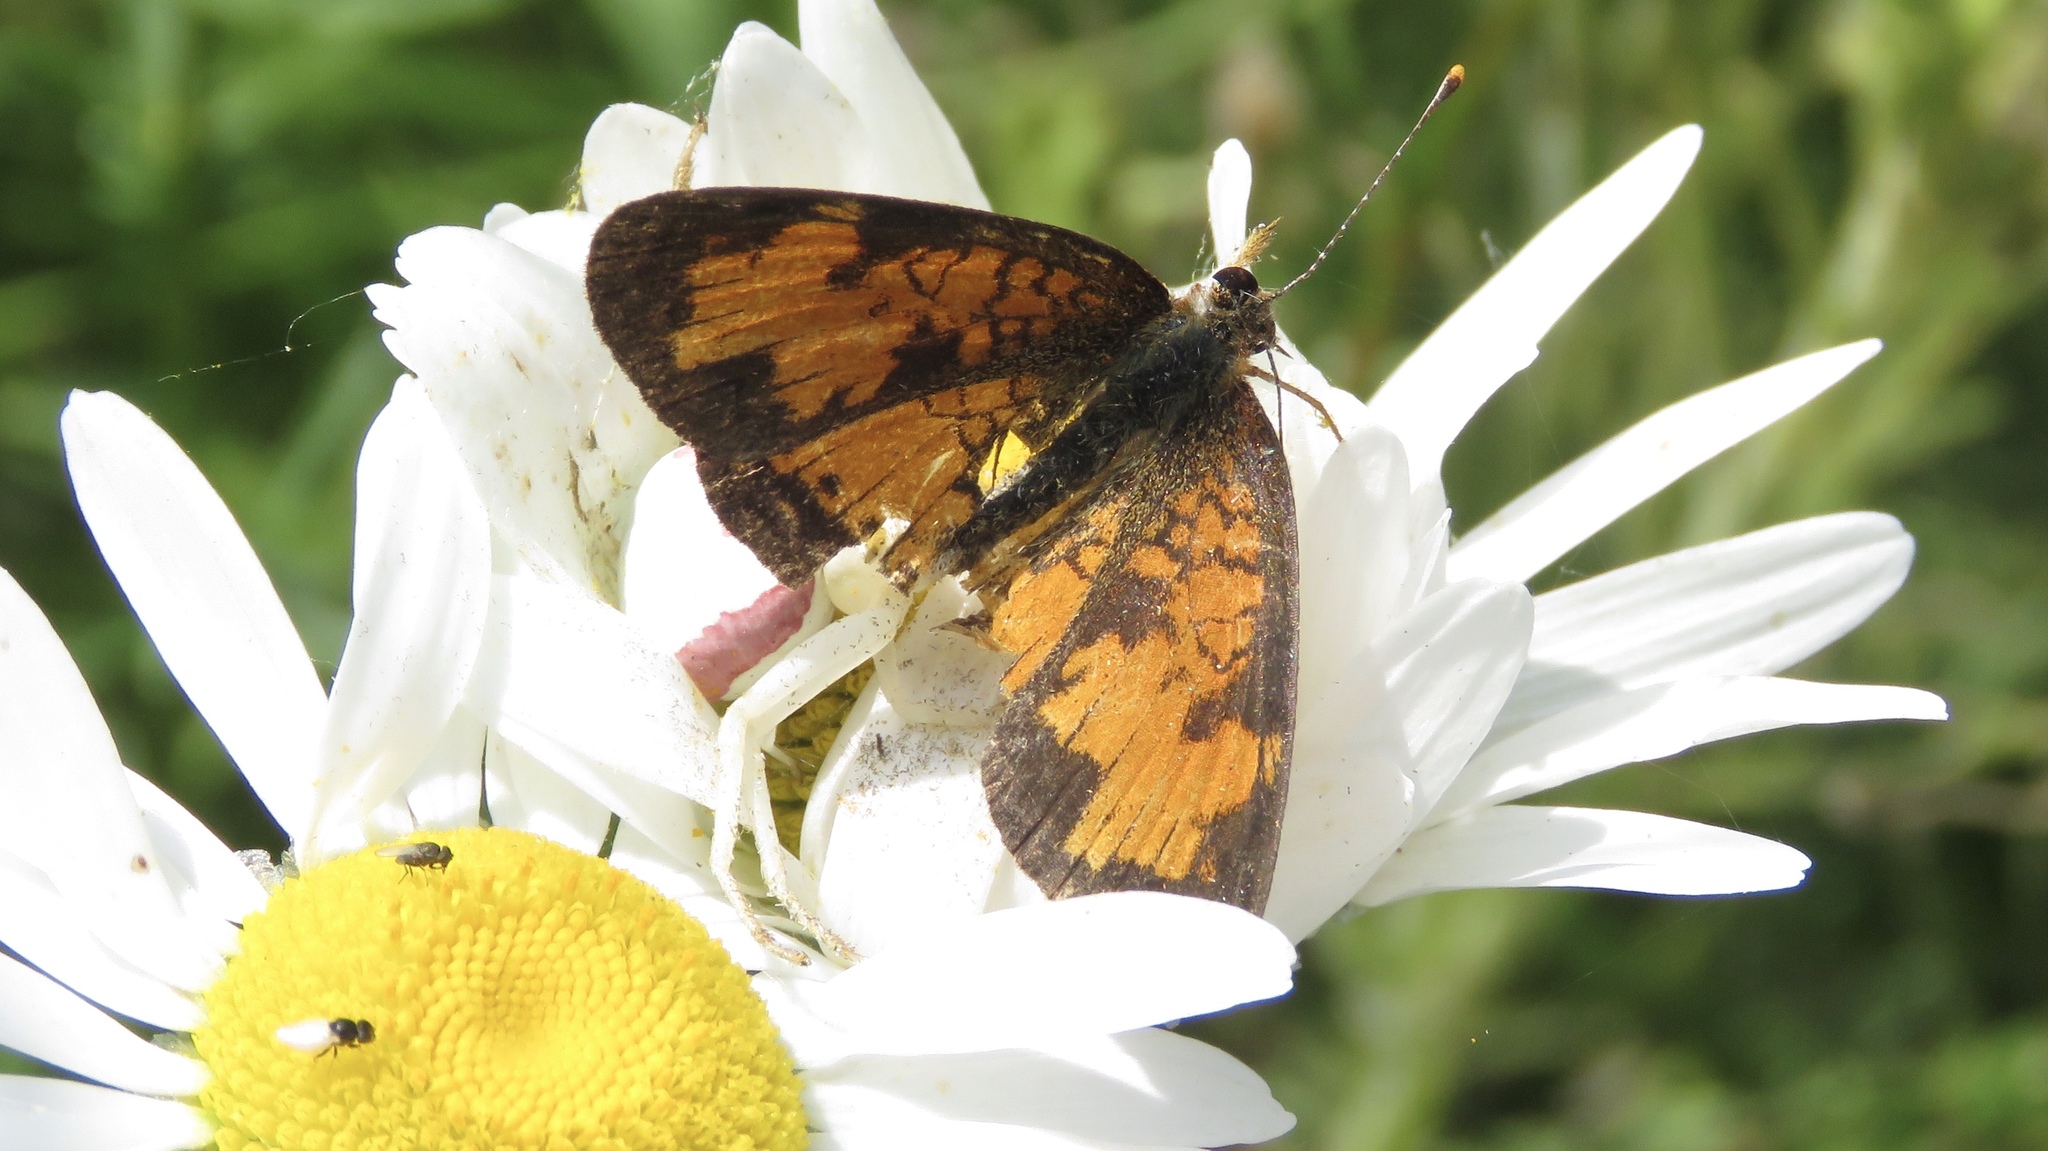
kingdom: Animalia
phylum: Arthropoda
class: Insecta
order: Lepidoptera
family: Nymphalidae
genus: Phyciodes
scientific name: Phyciodes tharos
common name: Pearl crescent
